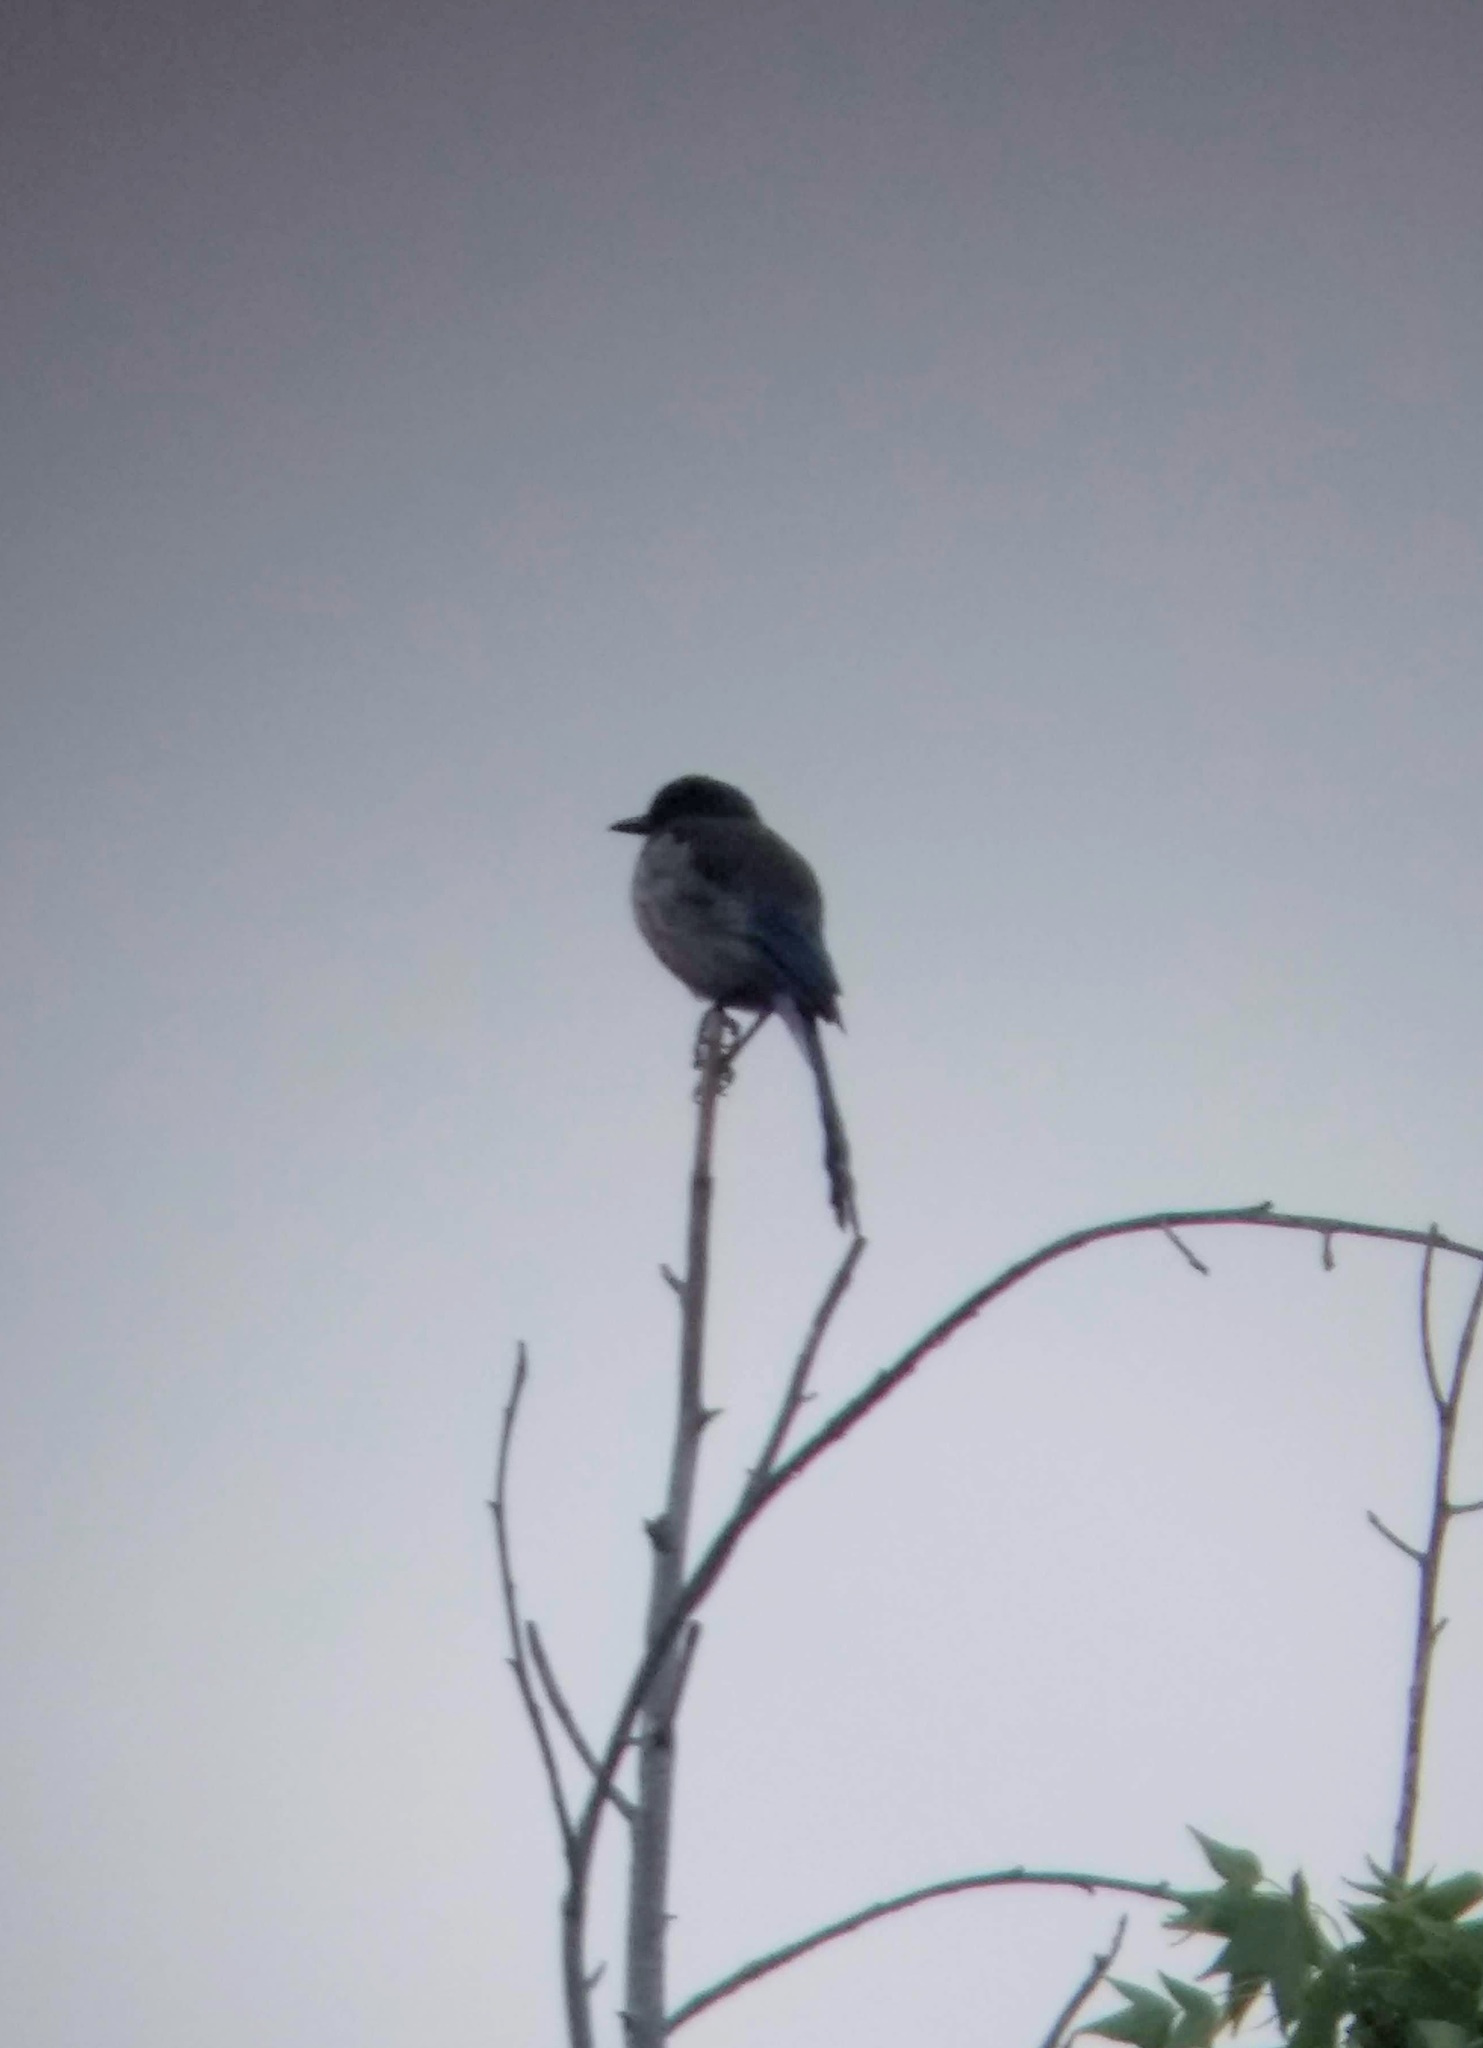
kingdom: Animalia
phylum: Chordata
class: Aves
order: Passeriformes
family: Corvidae
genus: Aphelocoma
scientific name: Aphelocoma californica
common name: California scrub-jay
